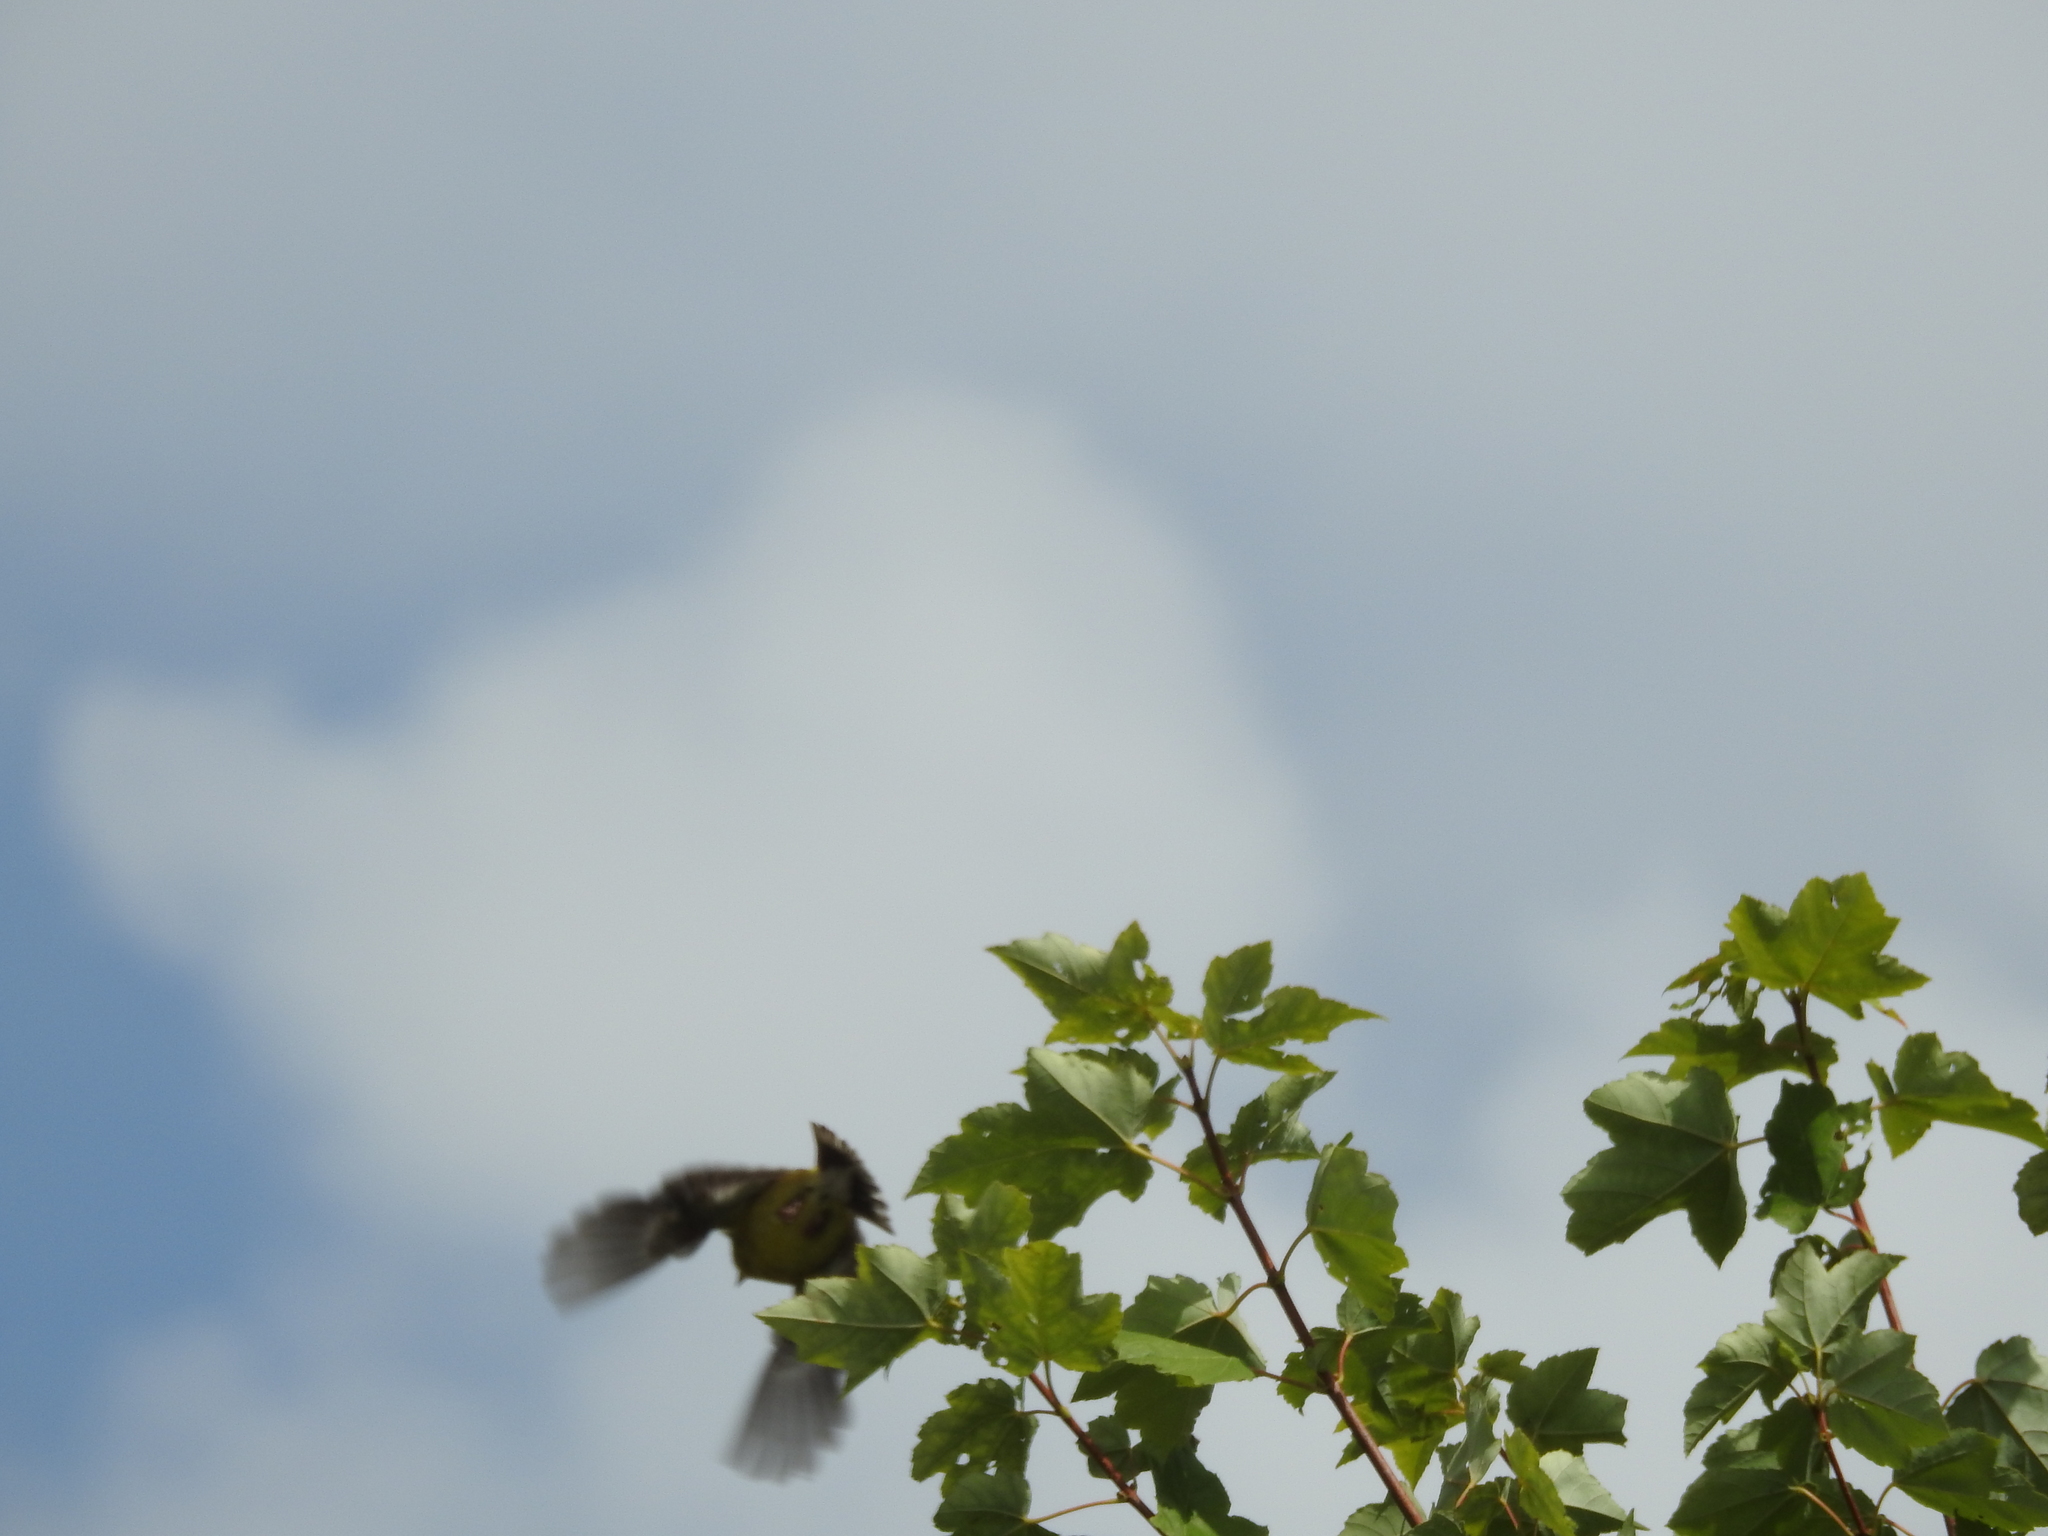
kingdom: Animalia
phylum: Chordata
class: Aves
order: Passeriformes
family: Fringillidae
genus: Spinus
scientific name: Spinus tristis
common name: American goldfinch
